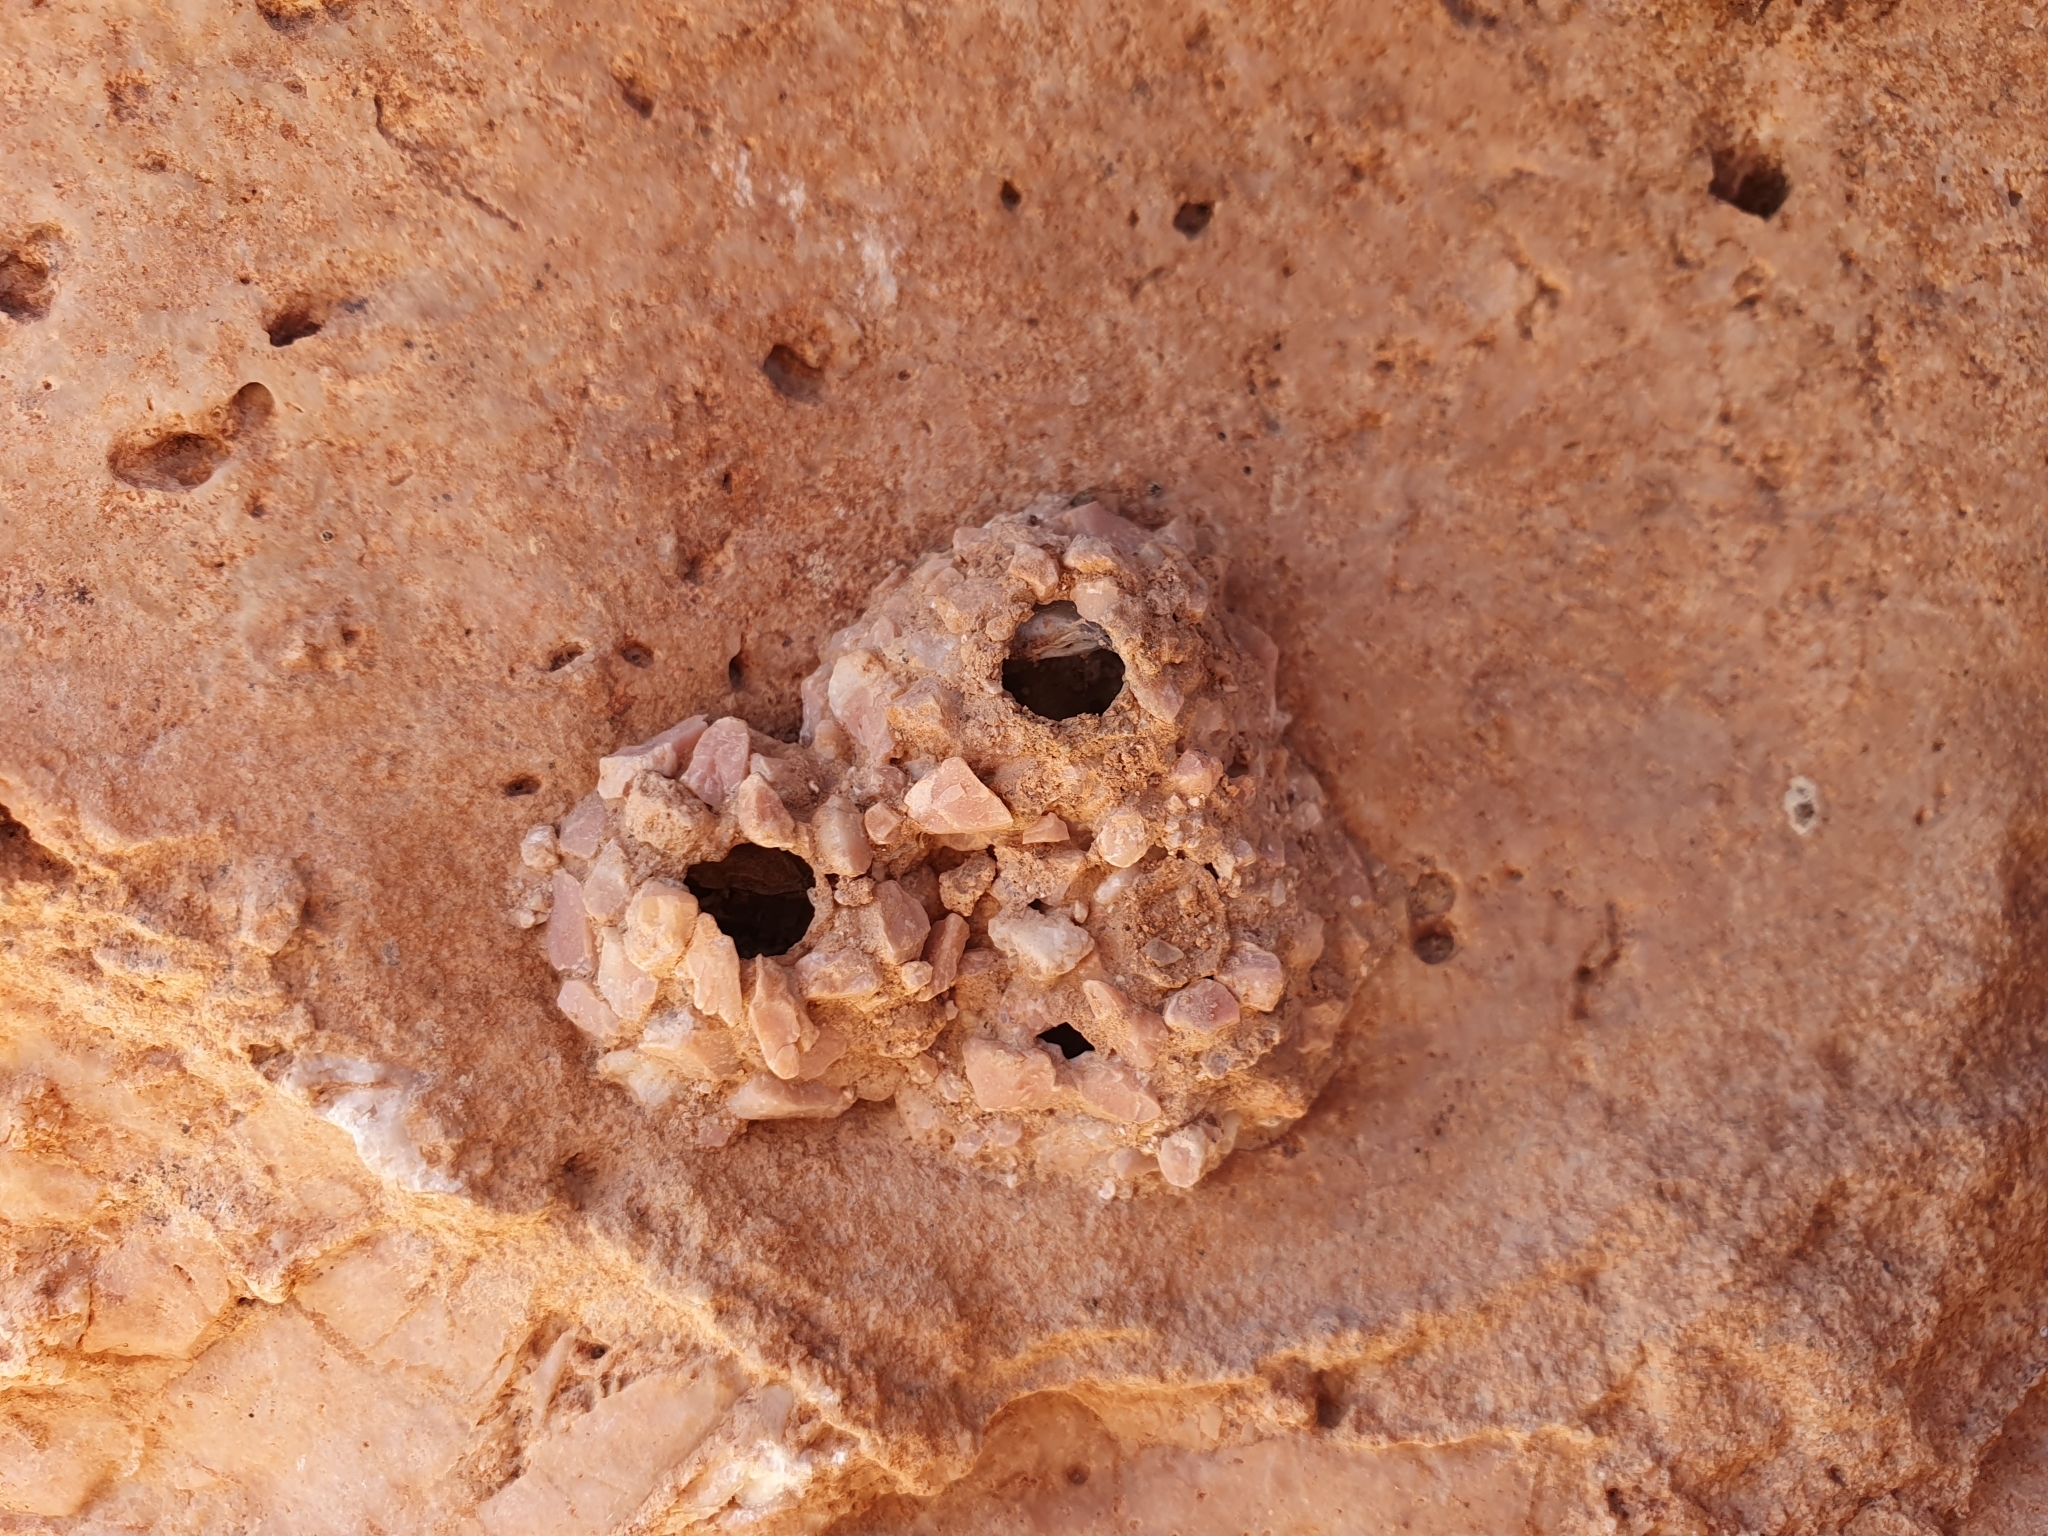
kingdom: Animalia
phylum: Arthropoda
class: Insecta
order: Hymenoptera
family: Eumenidae
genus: Katamenes
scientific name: Katamenes
